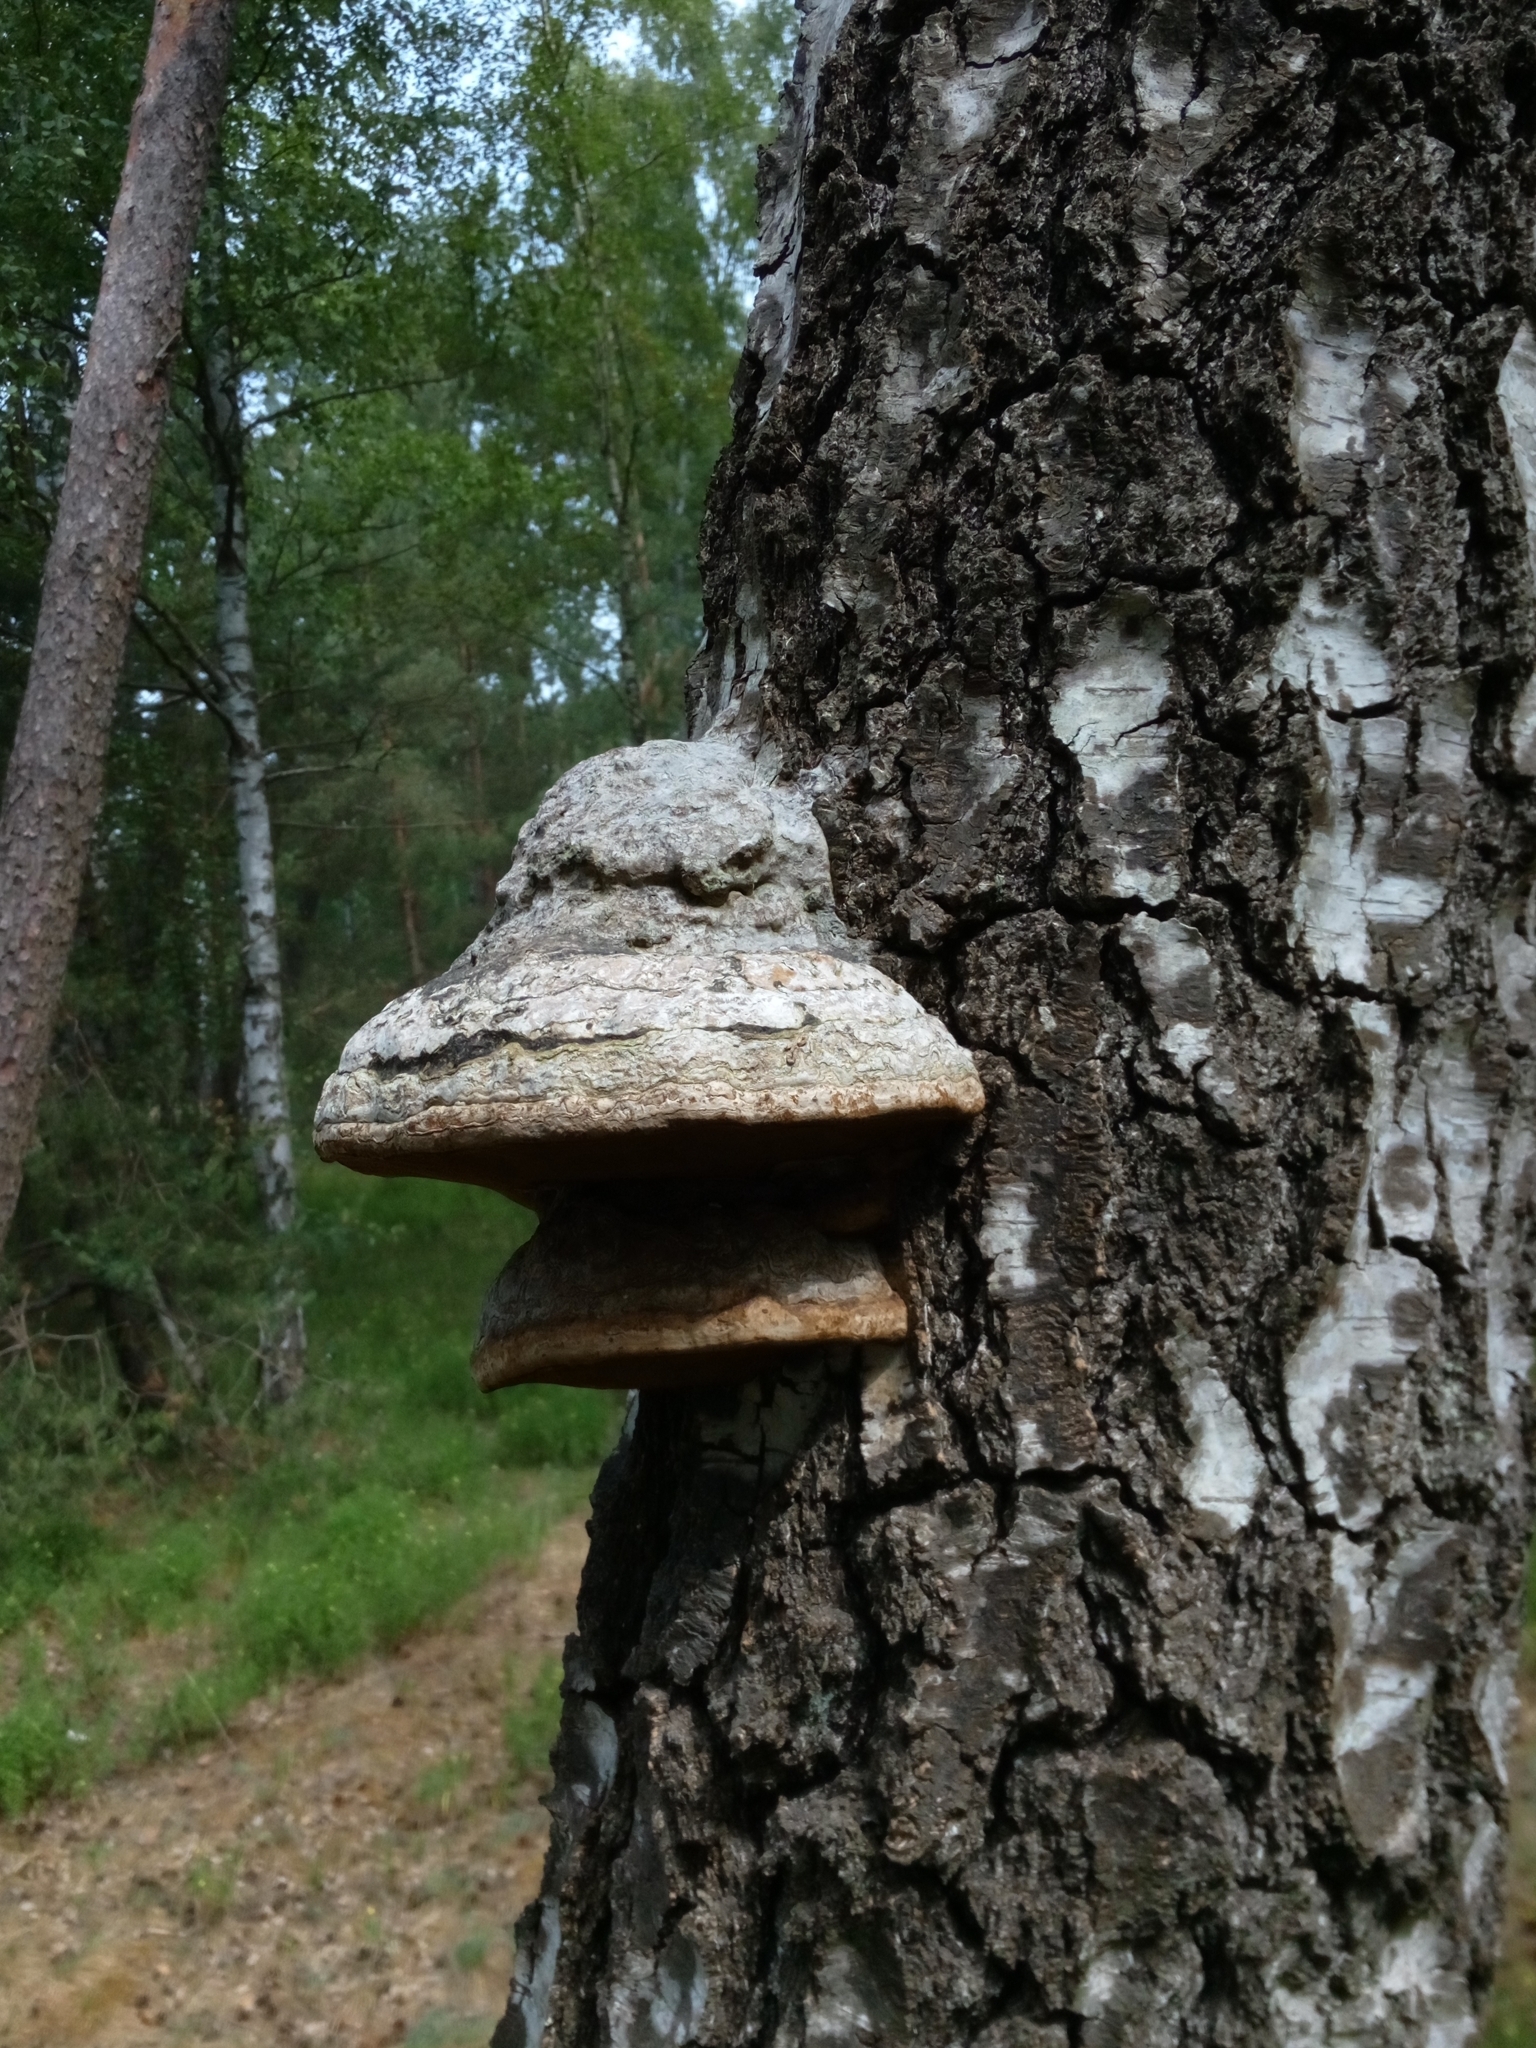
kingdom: Fungi
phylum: Basidiomycota
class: Agaricomycetes
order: Polyporales
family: Polyporaceae
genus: Fomes
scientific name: Fomes fomentarius
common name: Hoof fungus
